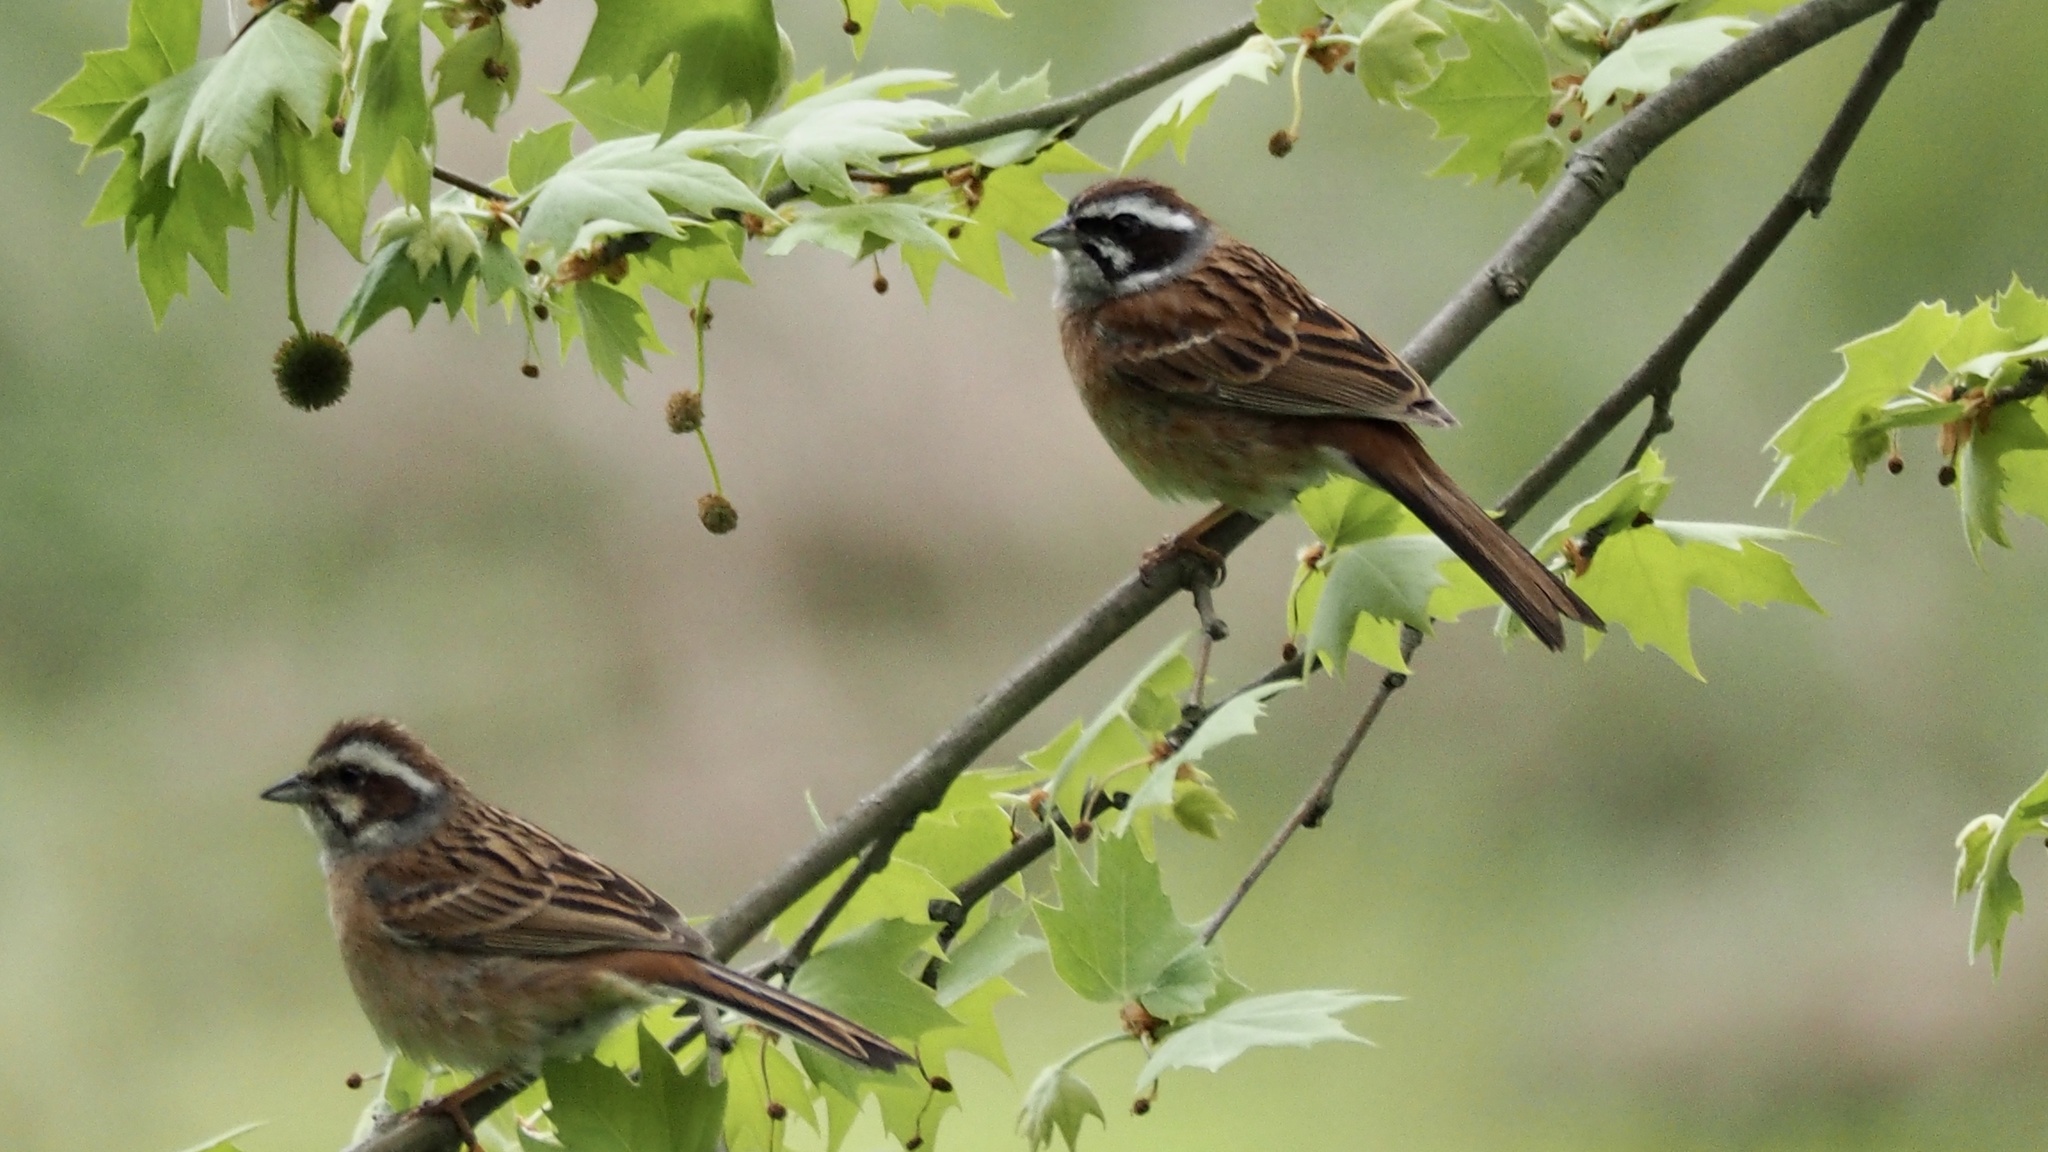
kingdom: Animalia
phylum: Chordata
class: Aves
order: Passeriformes
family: Emberizidae
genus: Emberiza
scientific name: Emberiza cioides
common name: Meadow bunting
